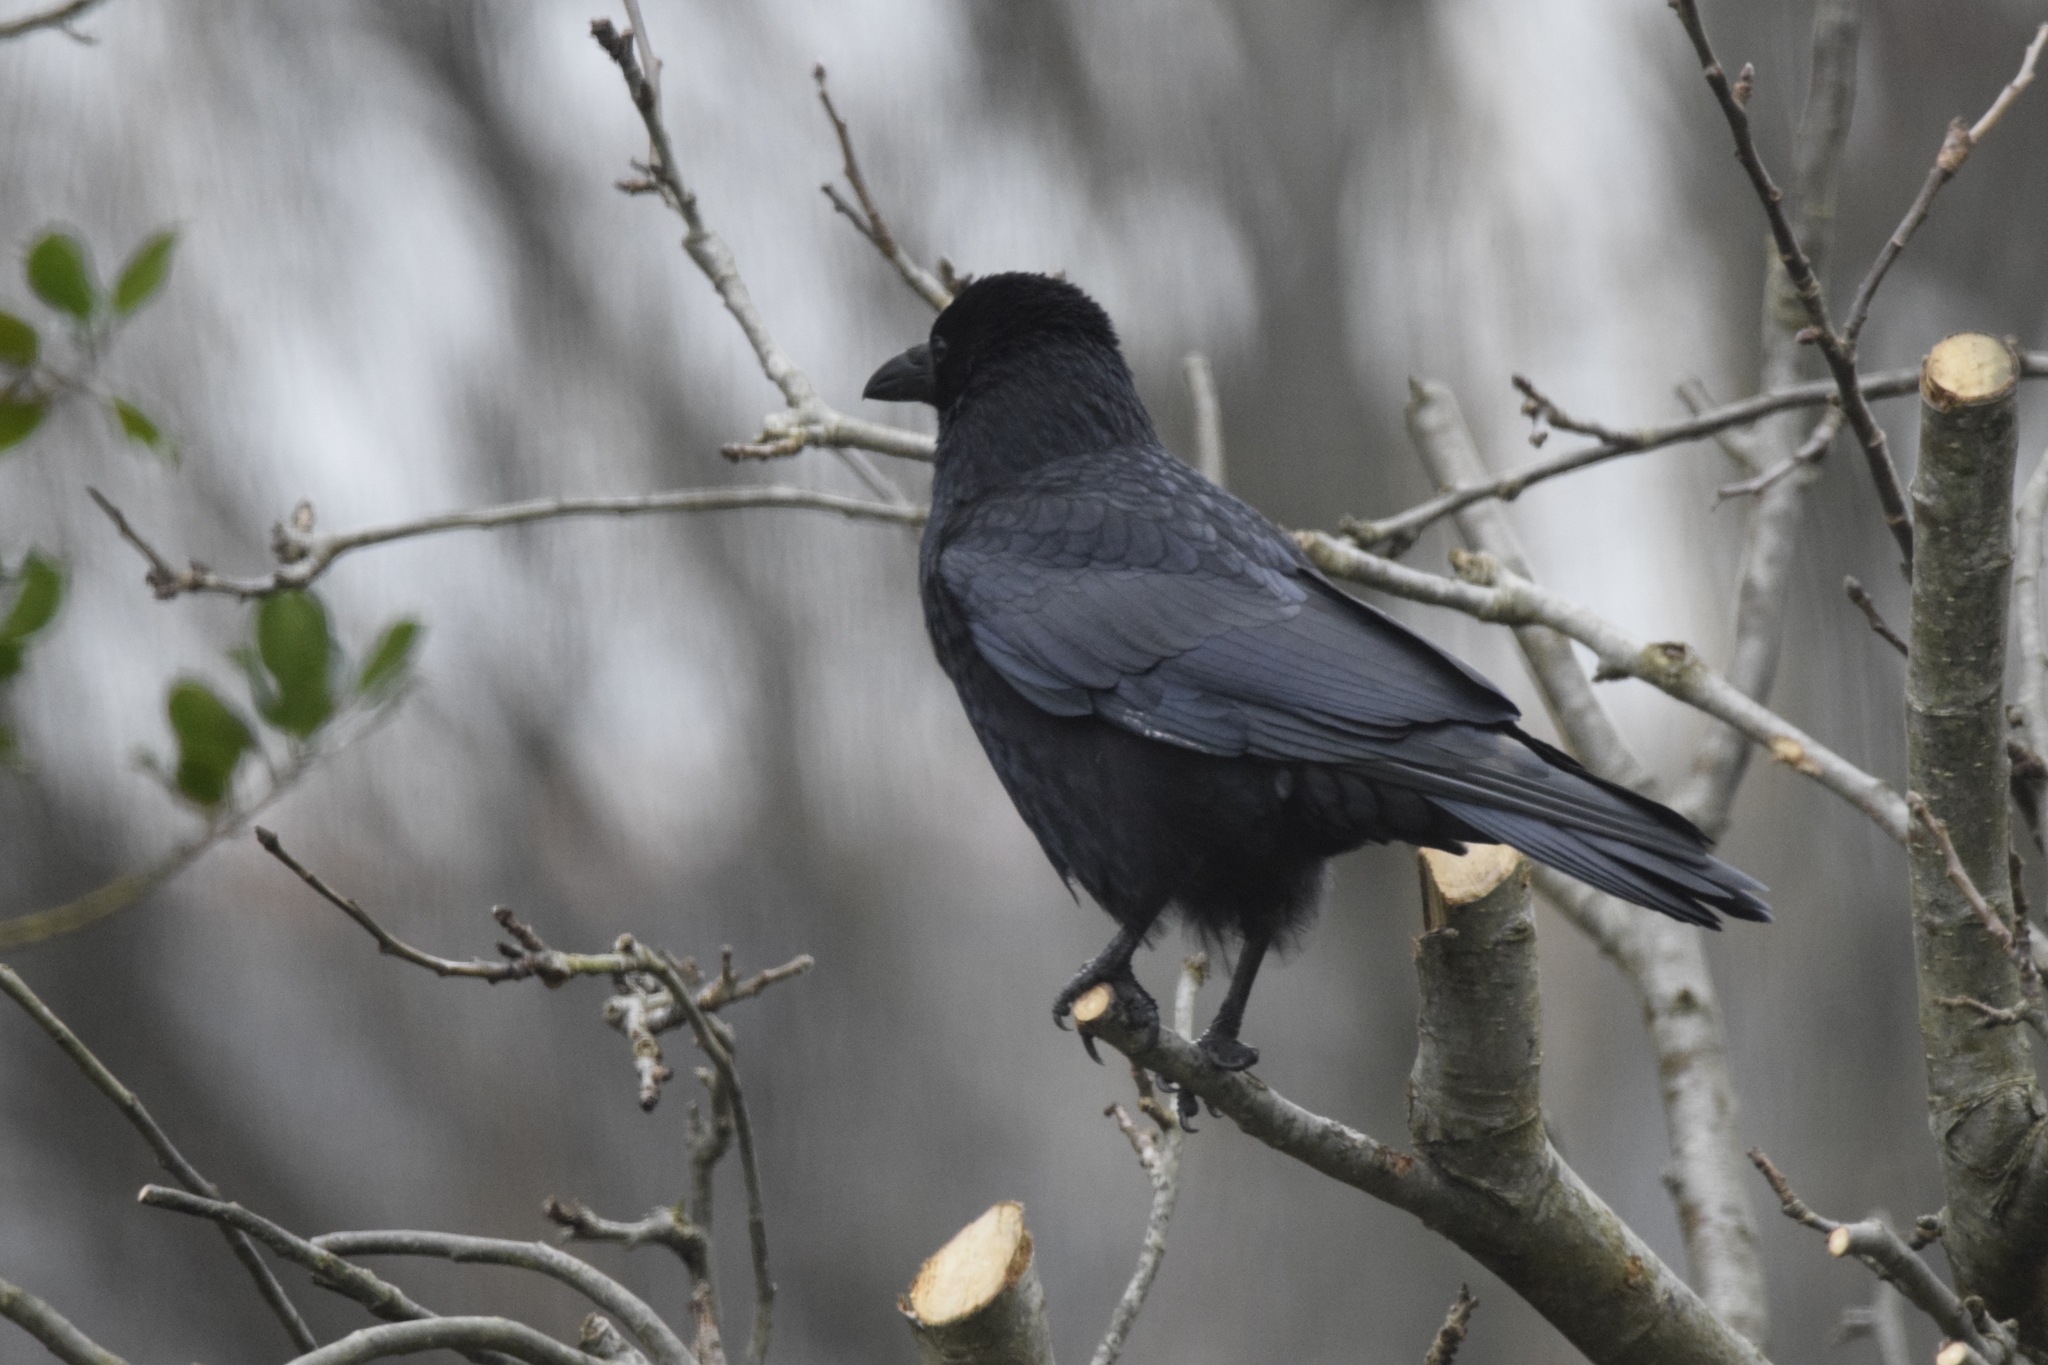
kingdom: Animalia
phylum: Chordata
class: Aves
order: Passeriformes
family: Corvidae
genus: Corvus
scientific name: Corvus corone
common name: Carrion crow
